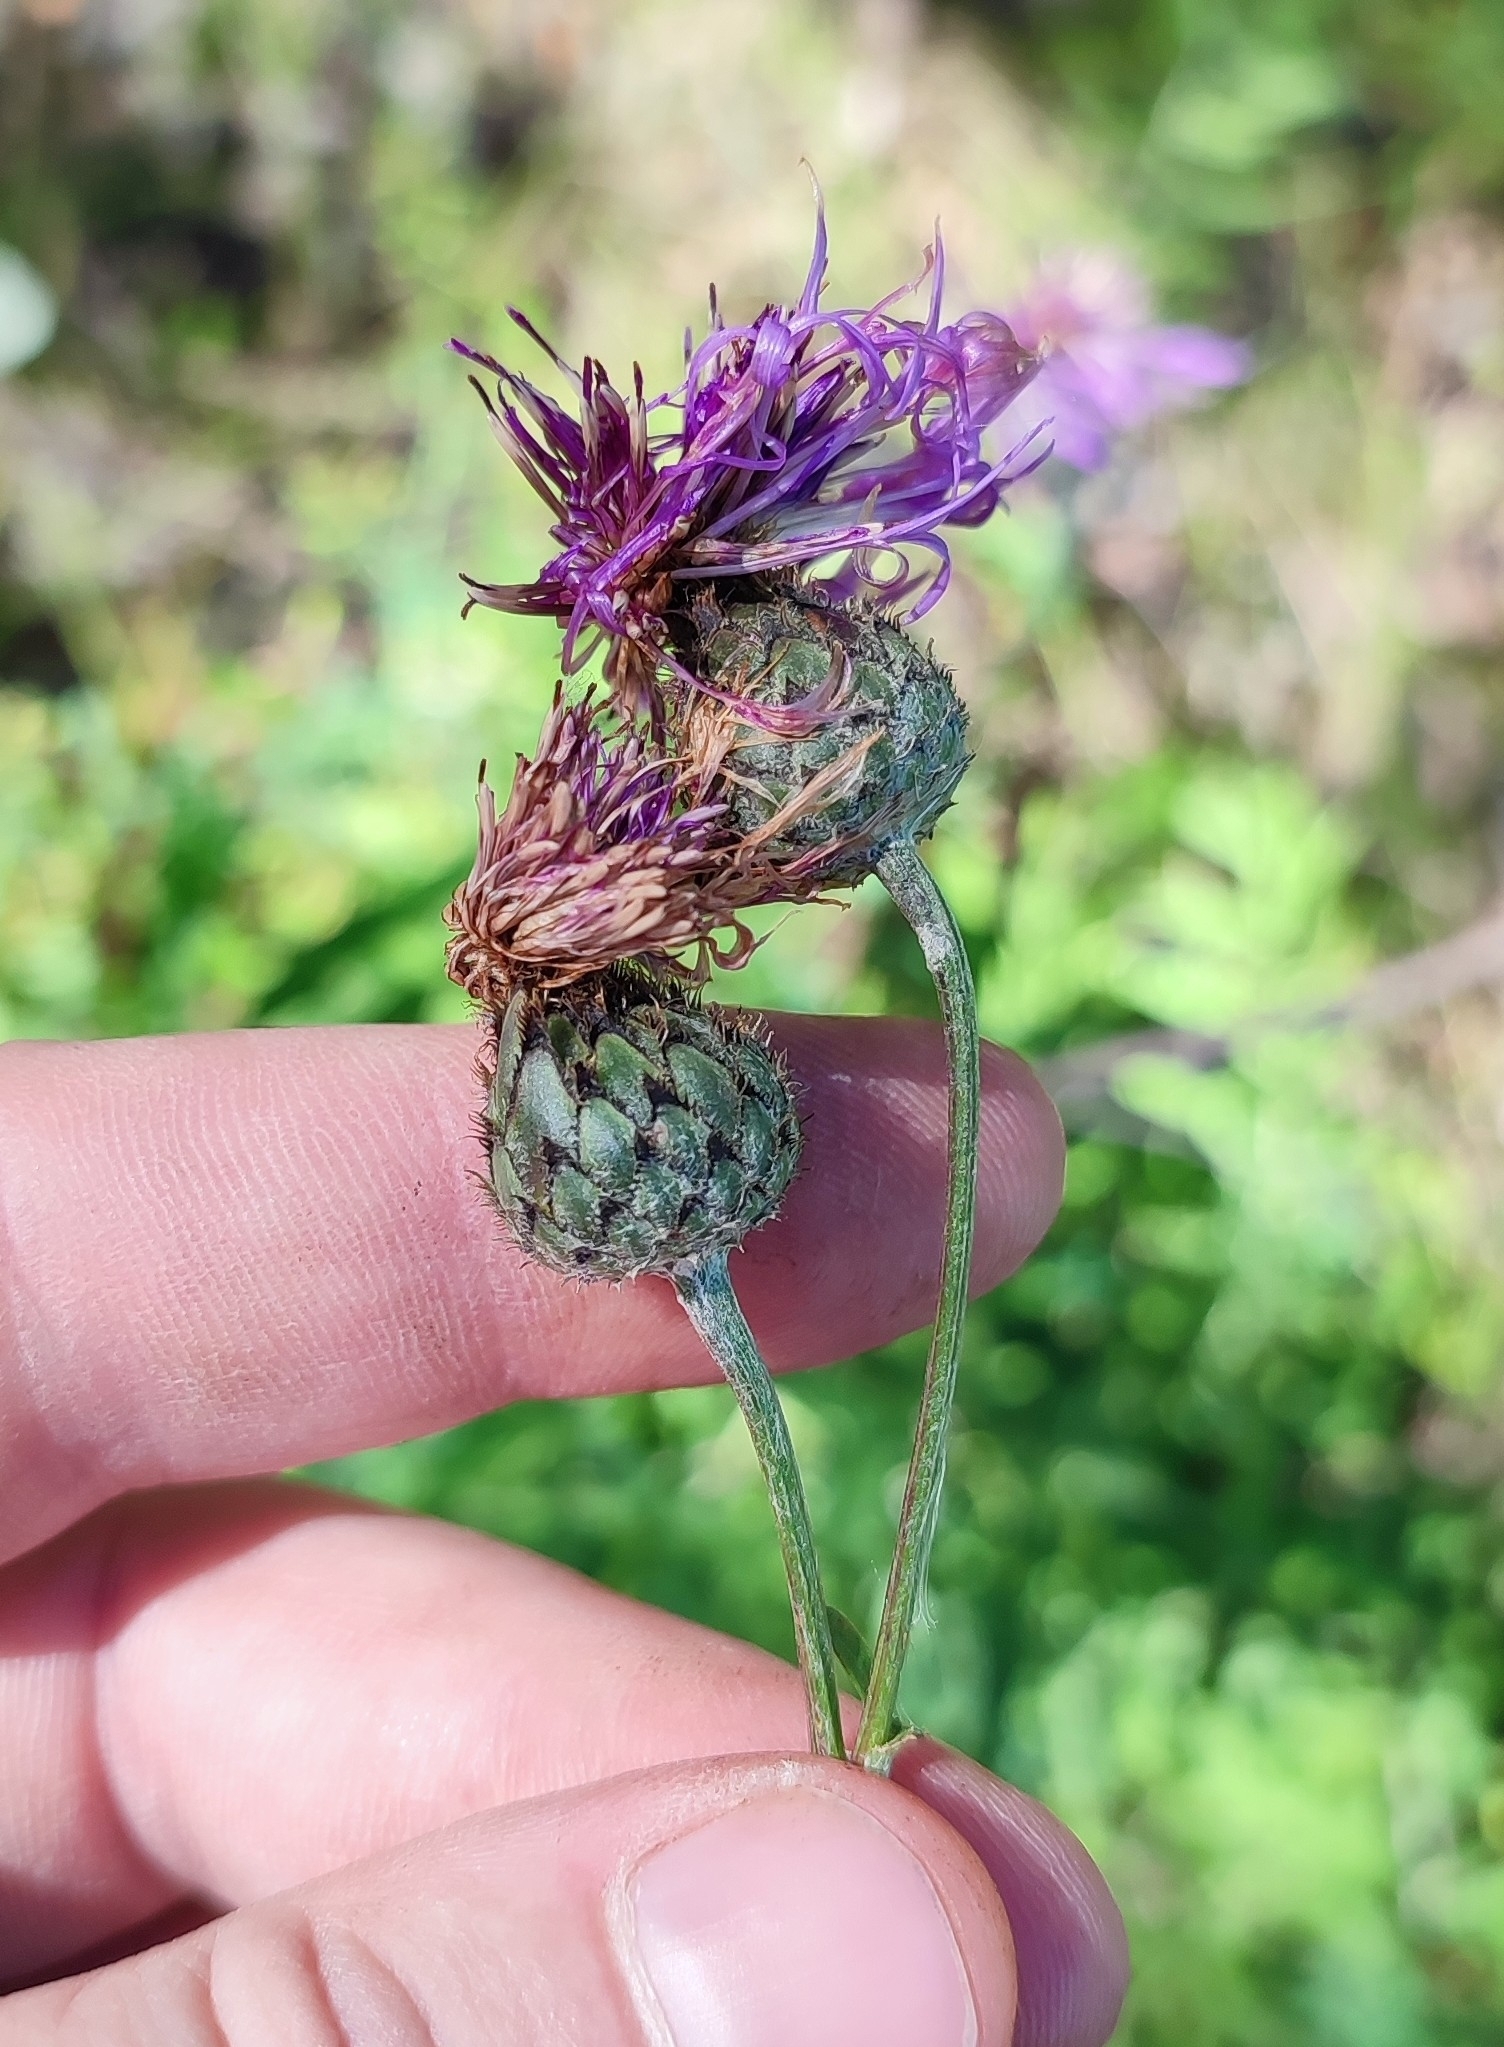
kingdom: Plantae
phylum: Tracheophyta
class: Magnoliopsida
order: Asterales
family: Asteraceae
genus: Centaurea
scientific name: Centaurea scabiosa
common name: Greater knapweed
